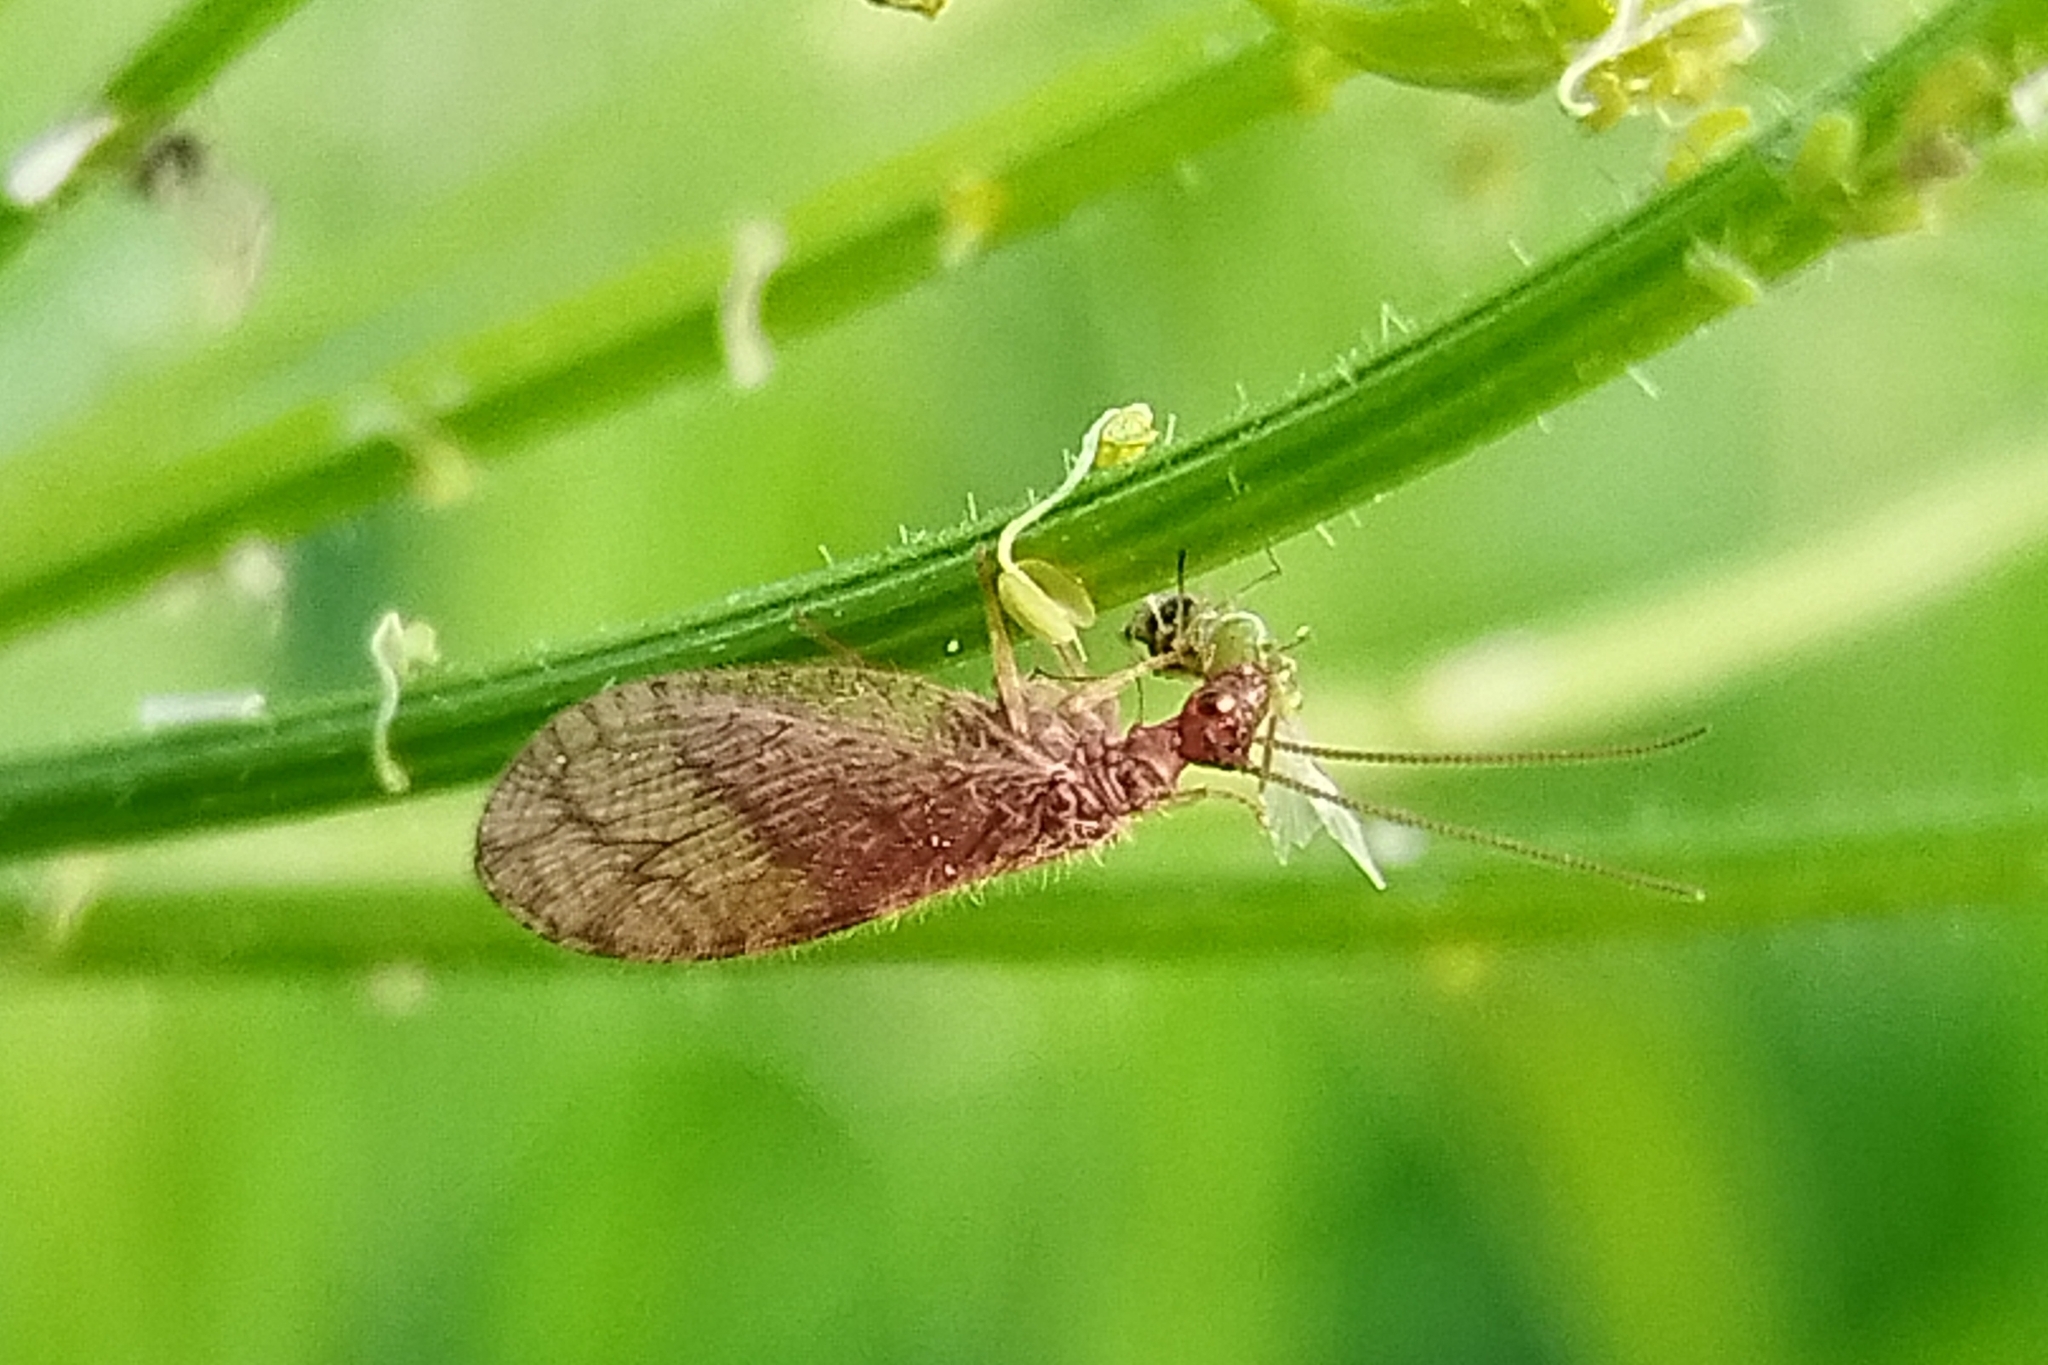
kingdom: Animalia
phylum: Arthropoda
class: Insecta
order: Neuroptera
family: Hemerobiidae
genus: Micromus
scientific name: Micromus angulatus
